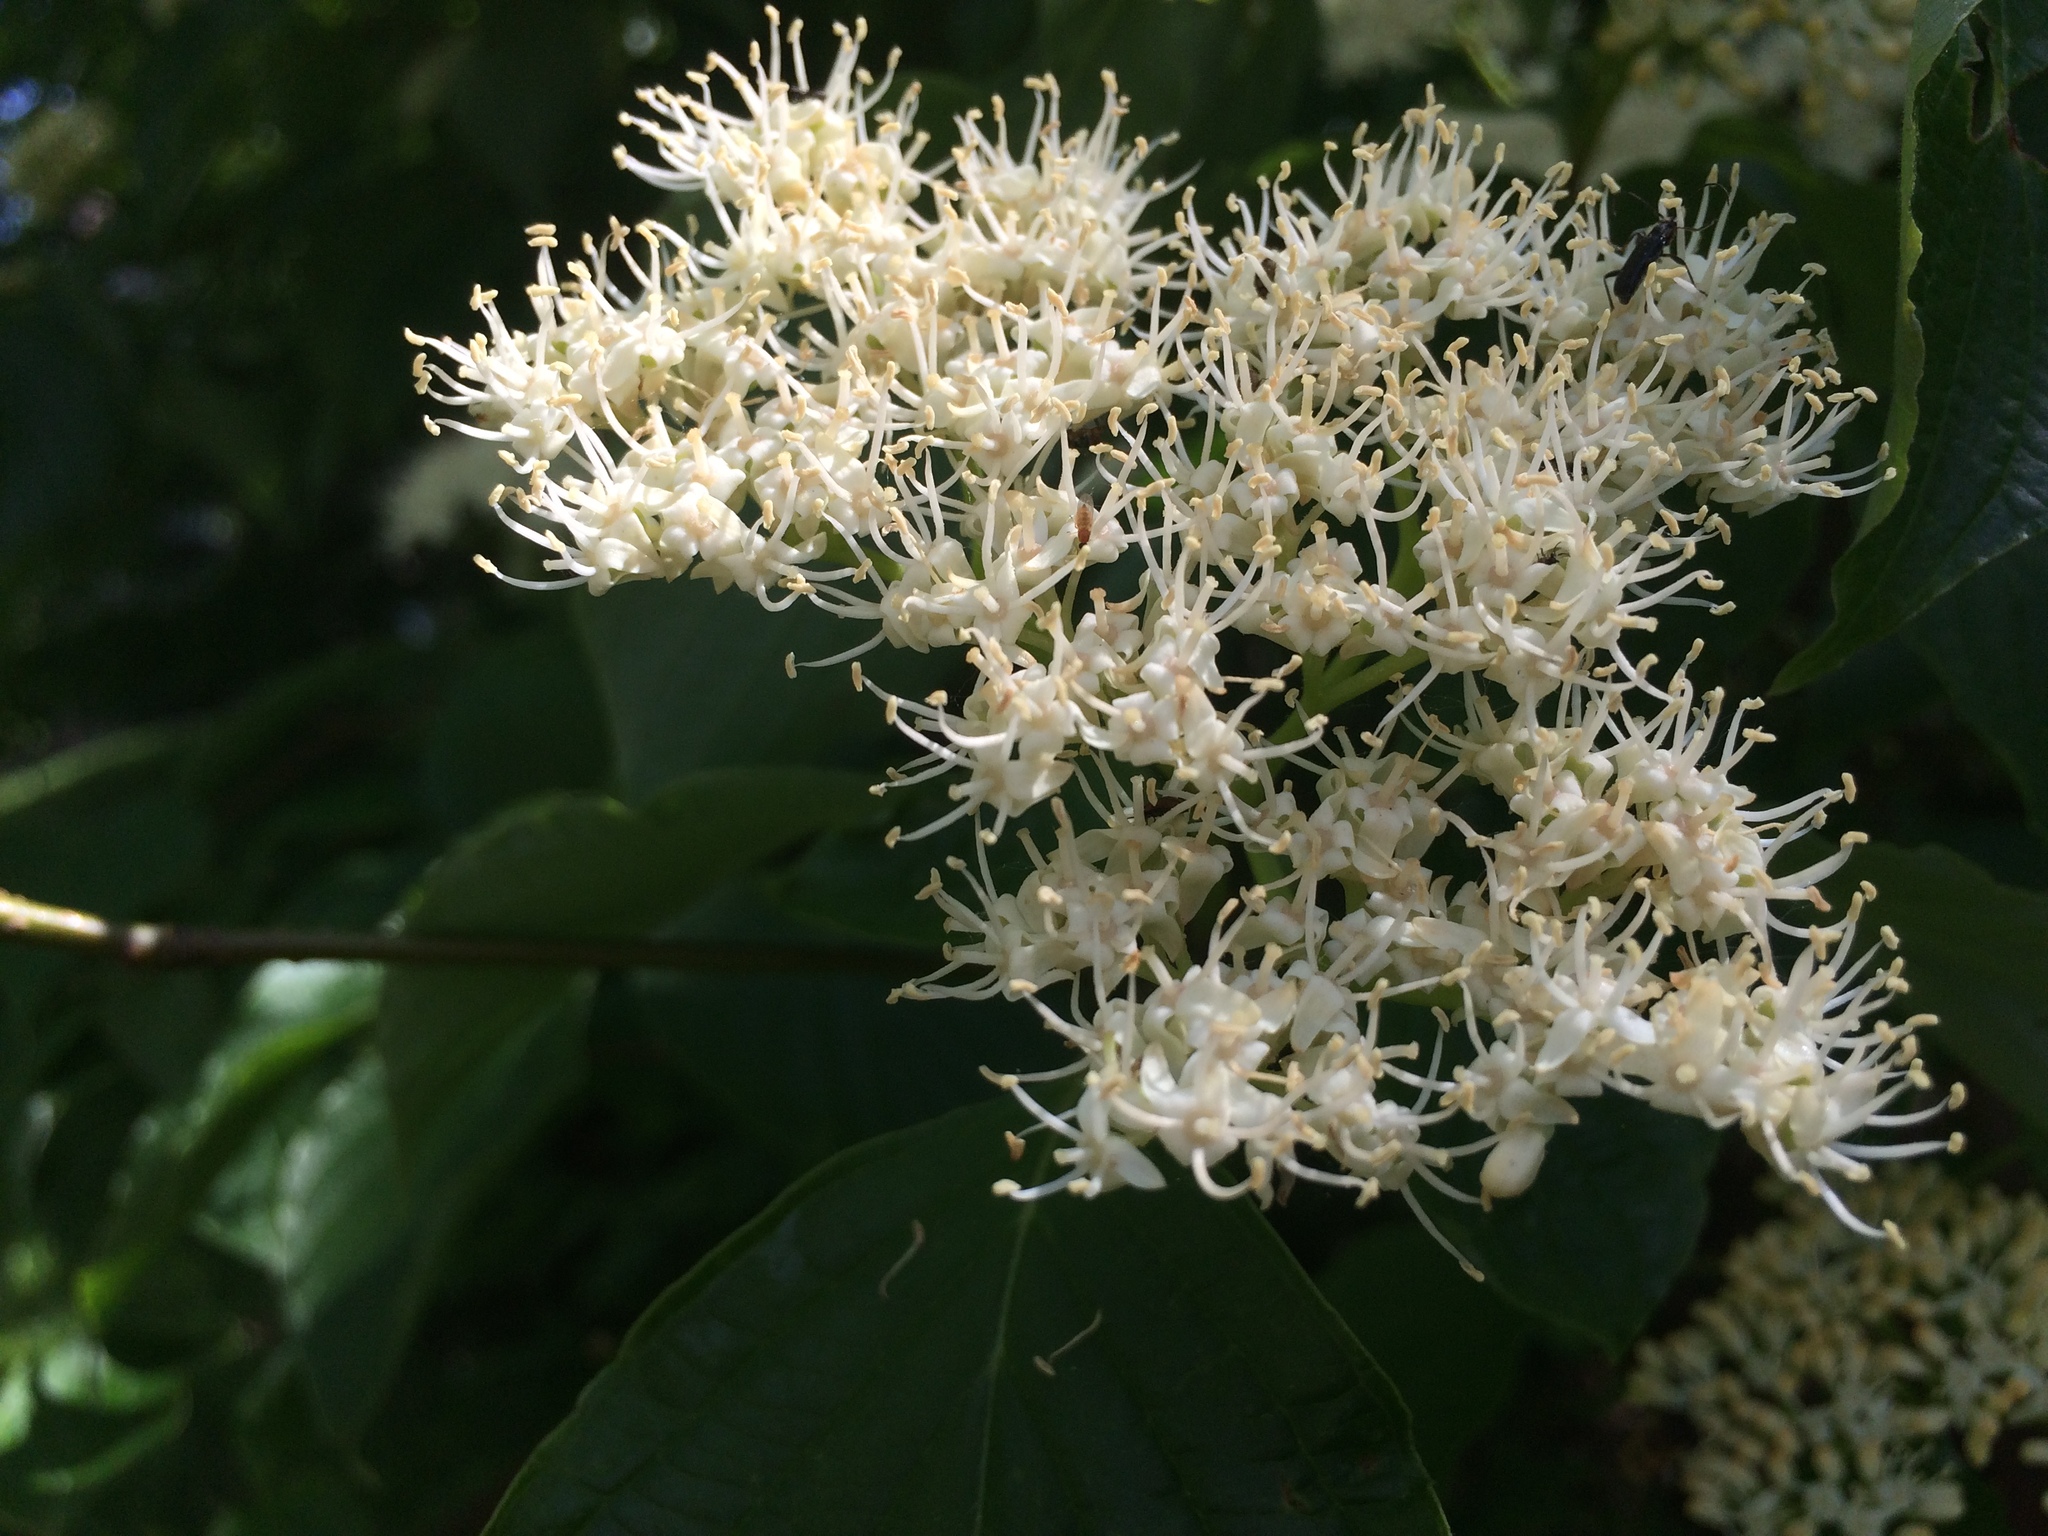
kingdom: Plantae
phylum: Tracheophyta
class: Magnoliopsida
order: Cornales
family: Cornaceae
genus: Cornus
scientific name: Cornus alternifolia
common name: Pagoda dogwood
